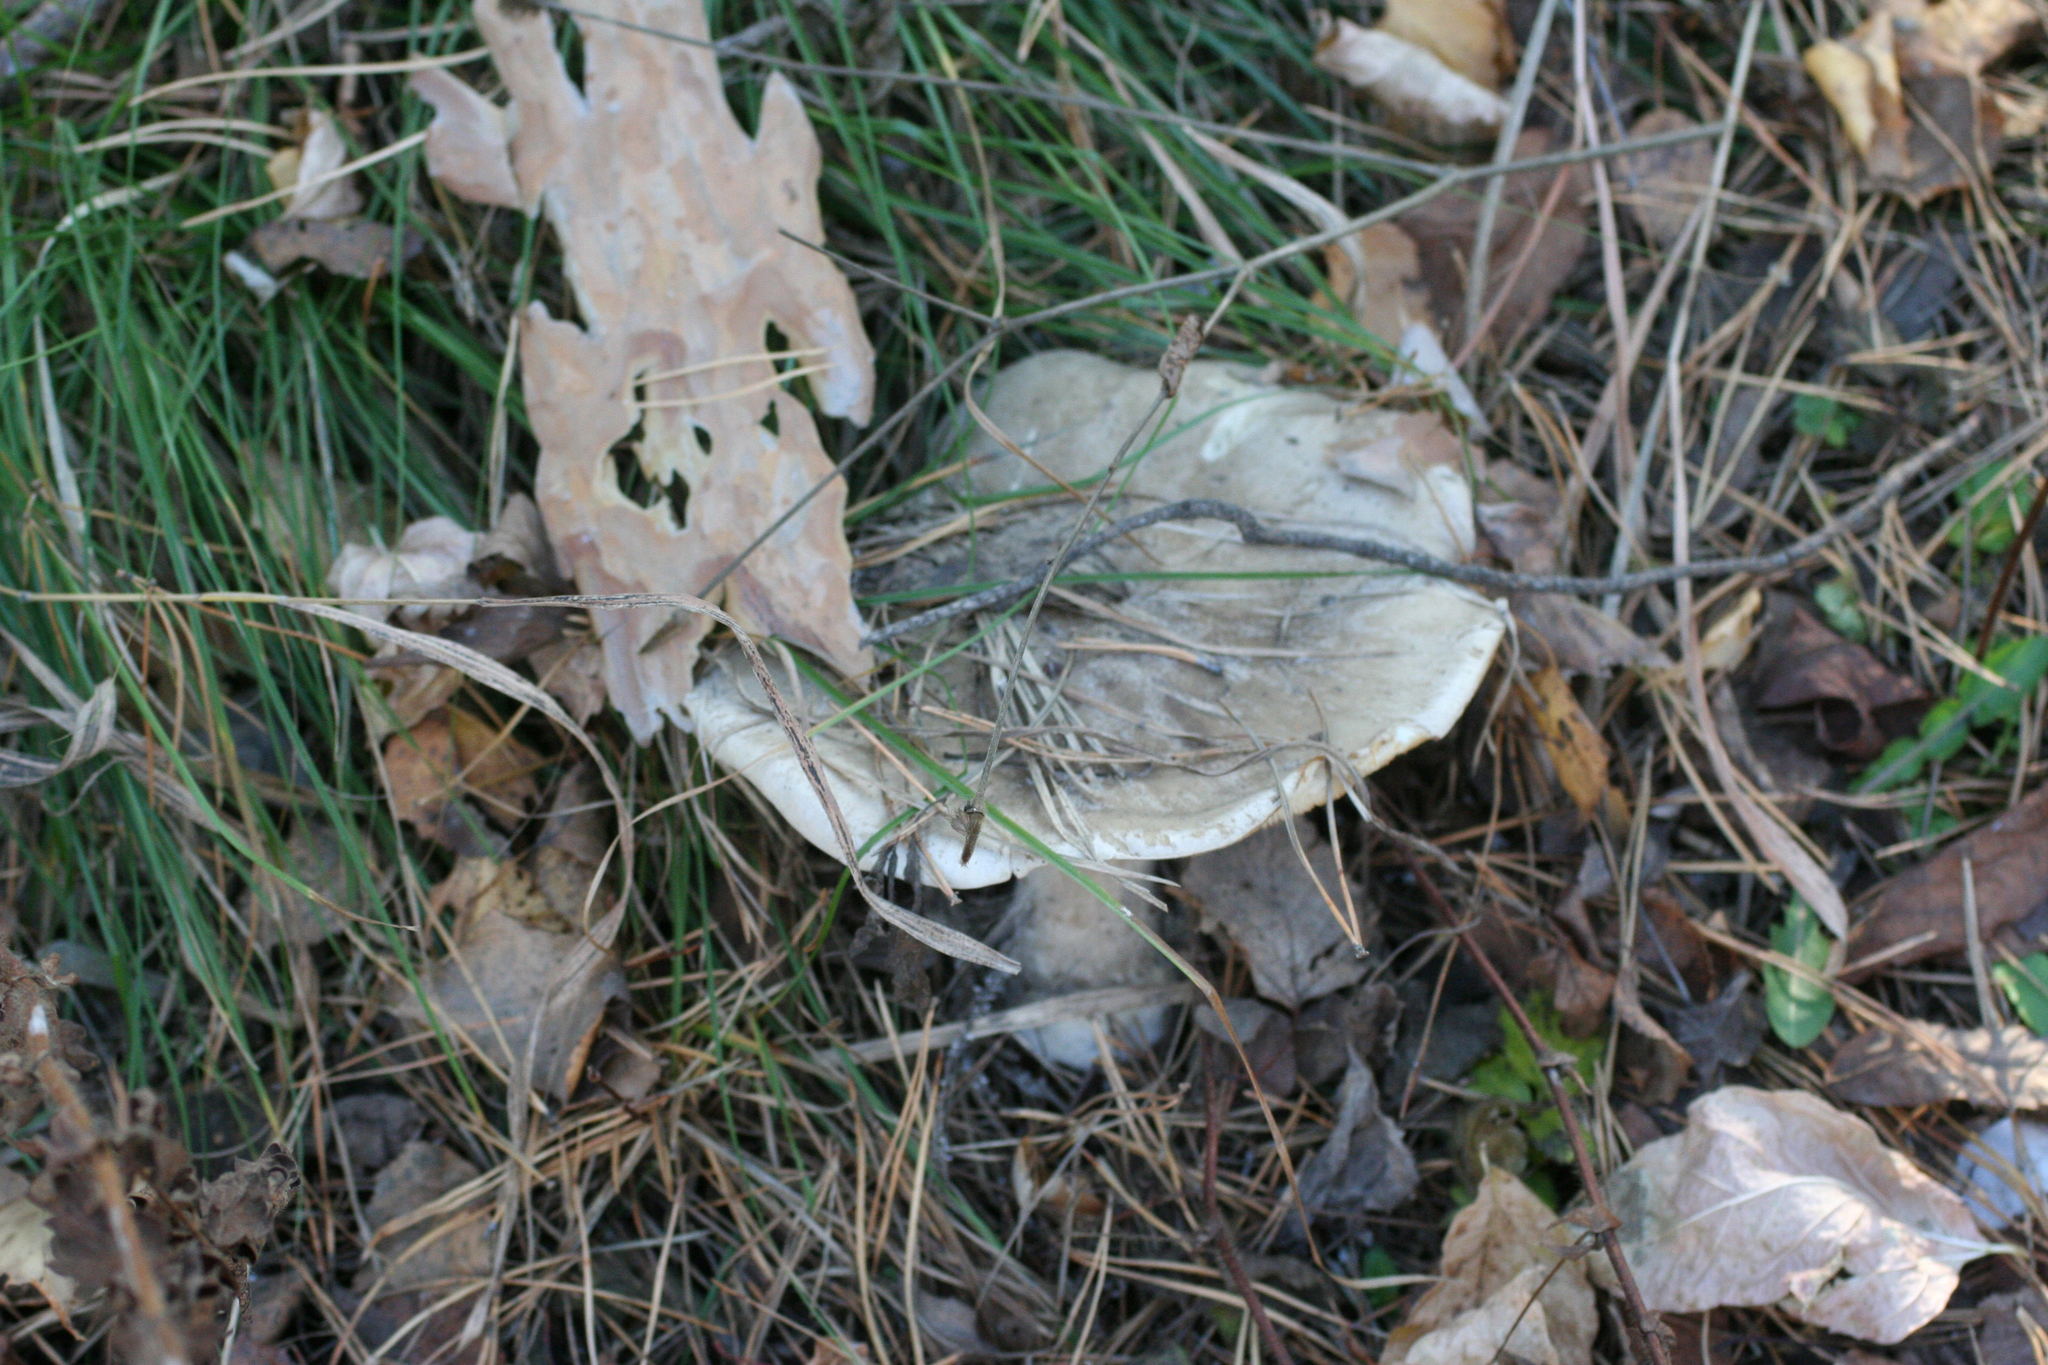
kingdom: Fungi
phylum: Basidiomycota
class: Agaricomycetes
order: Agaricales
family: Tricholomataceae
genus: Clitocybe
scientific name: Clitocybe nebularis
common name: Clouded agaric
